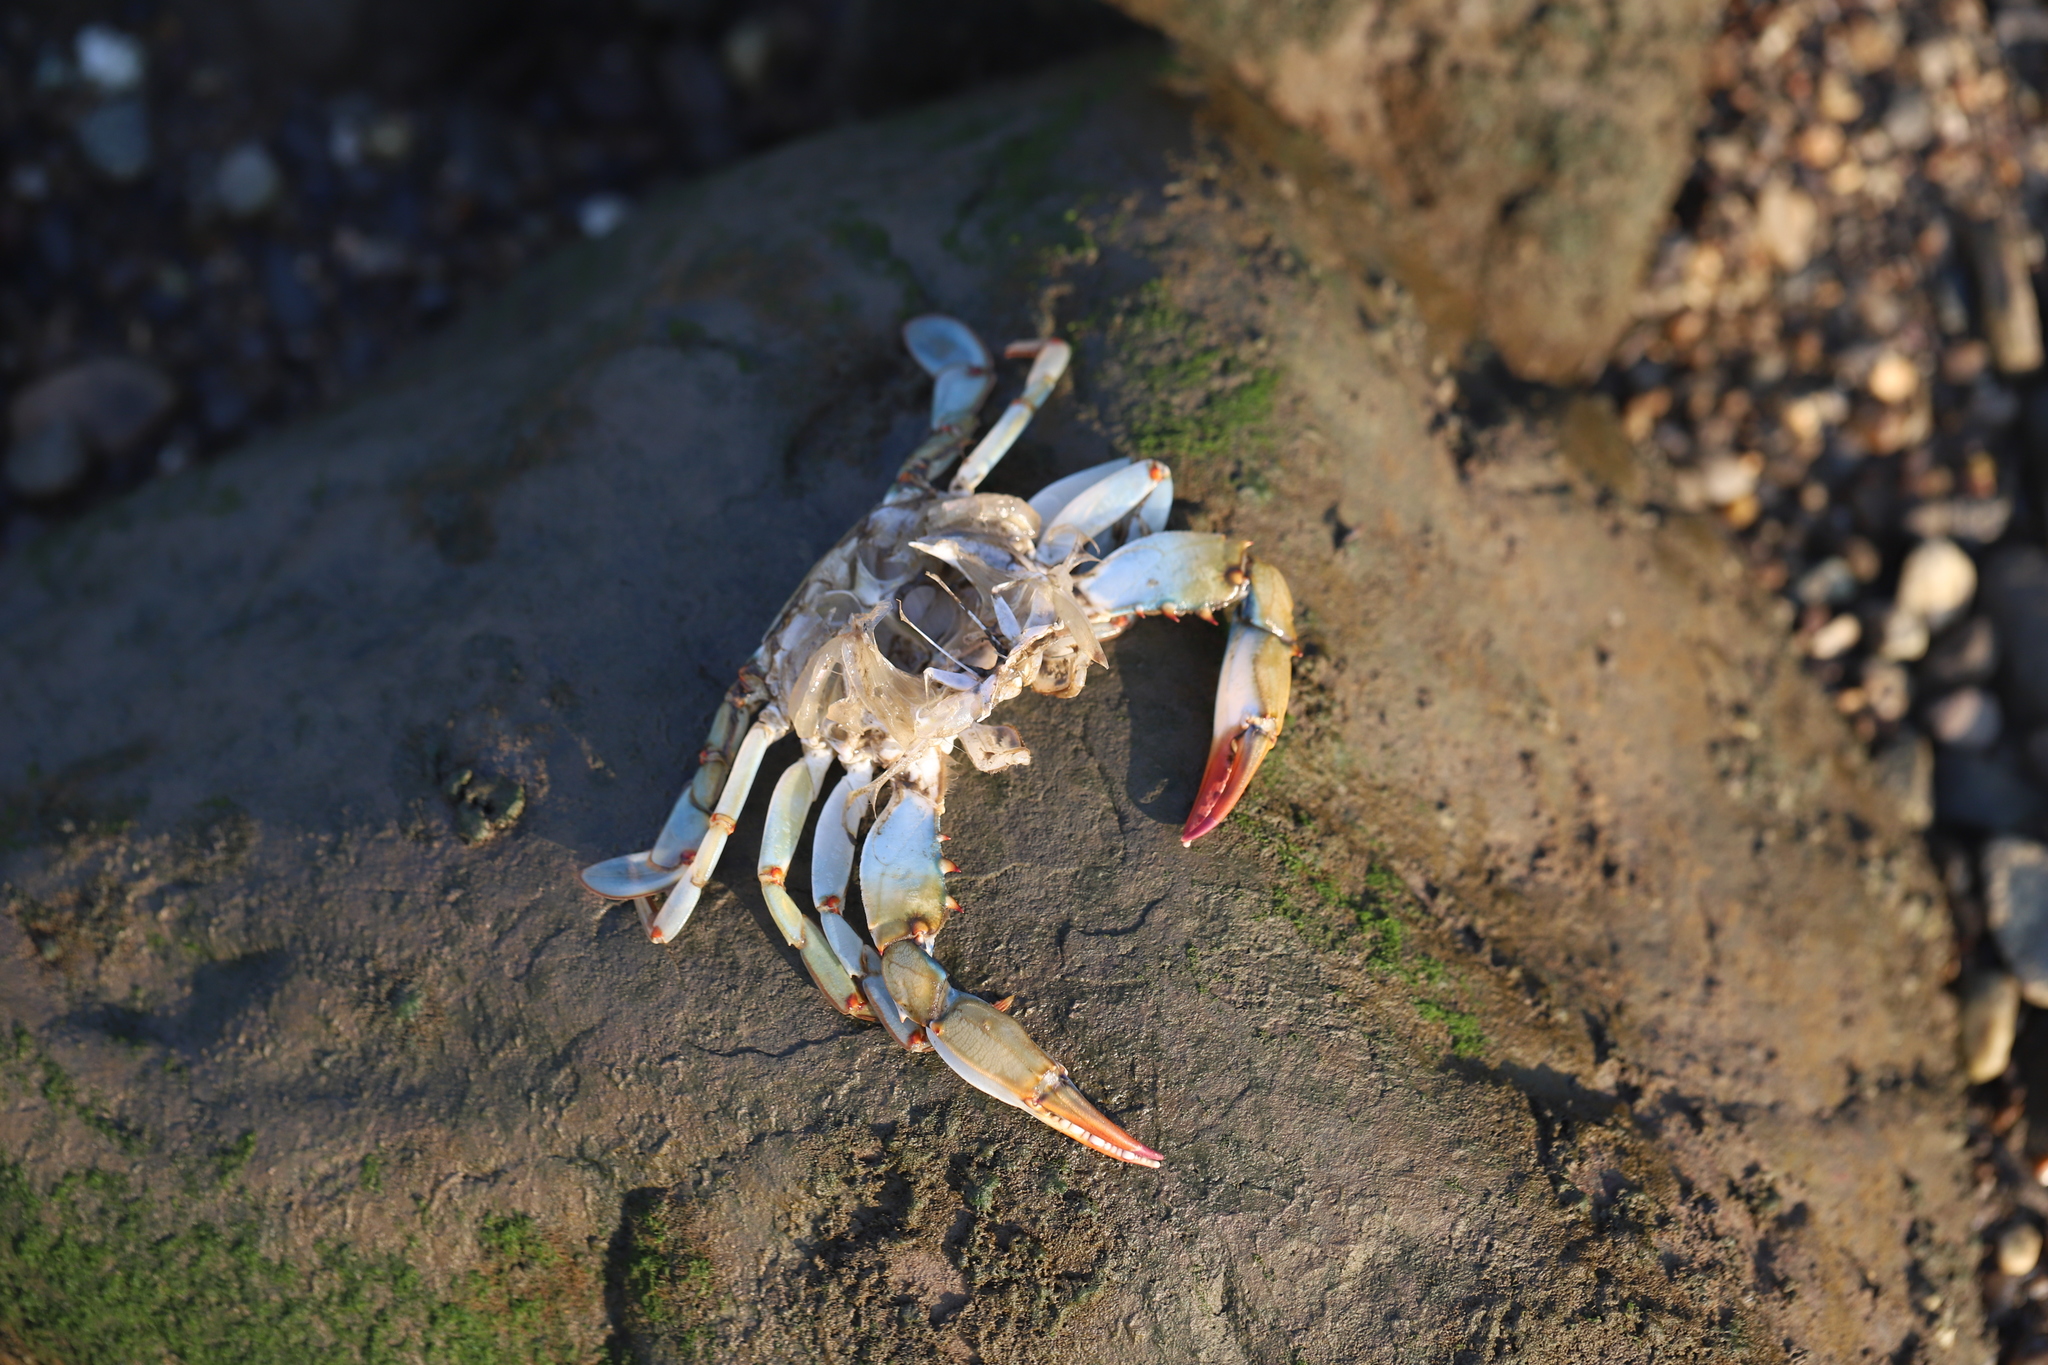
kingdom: Animalia
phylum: Arthropoda
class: Malacostraca
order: Decapoda
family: Portunidae
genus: Callinectes
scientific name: Callinectes sapidus
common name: Blue crab
